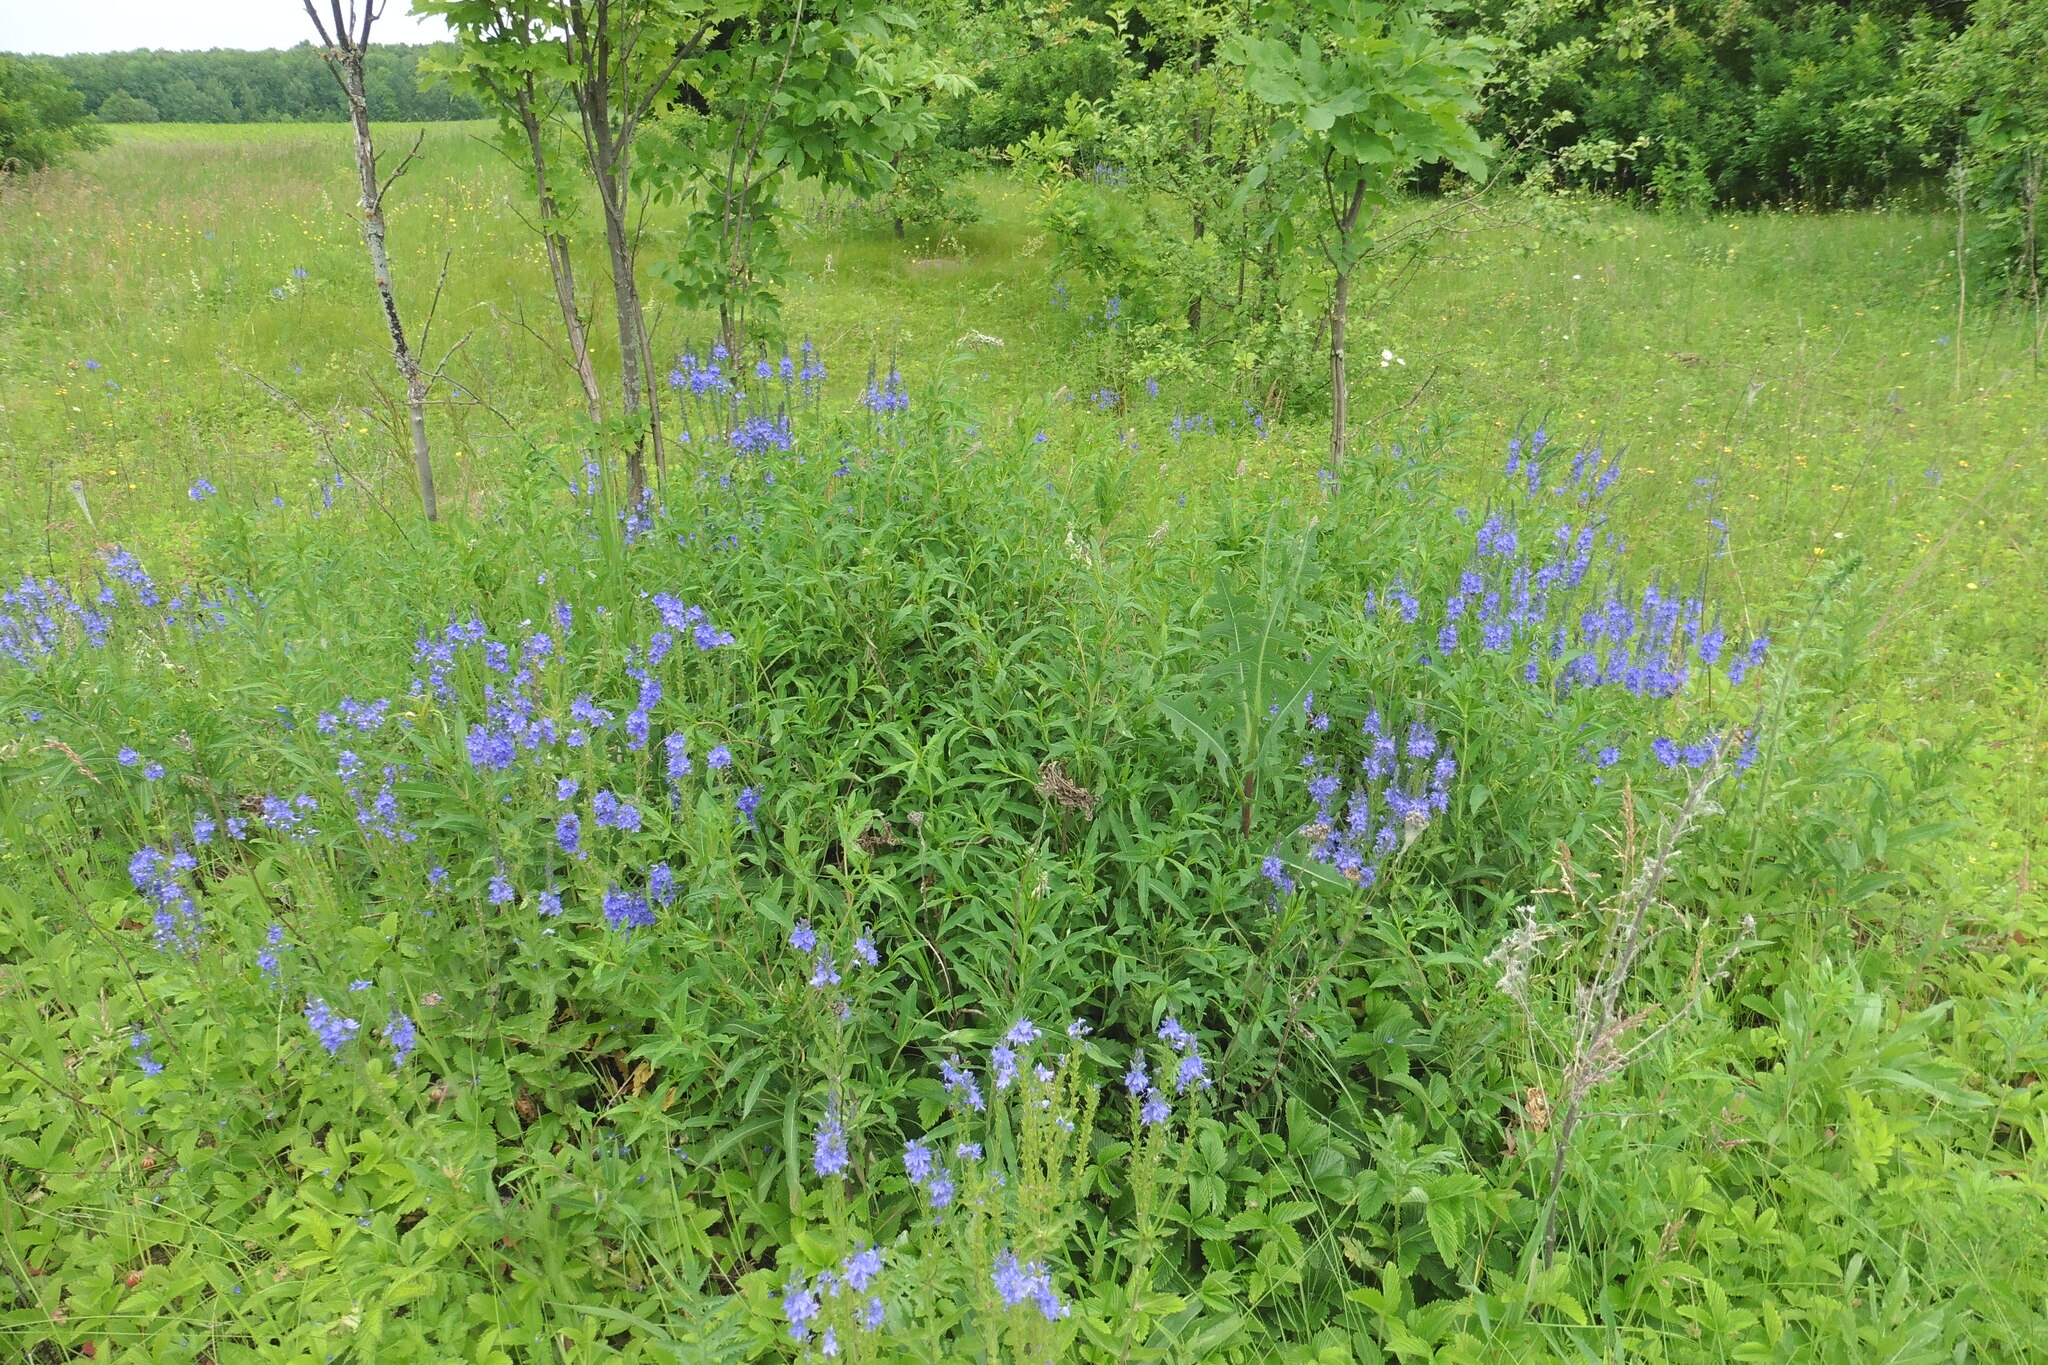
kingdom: Plantae
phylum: Tracheophyta
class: Magnoliopsida
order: Lamiales
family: Plantaginaceae
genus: Veronica
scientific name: Veronica teucrium
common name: Large speedwell
